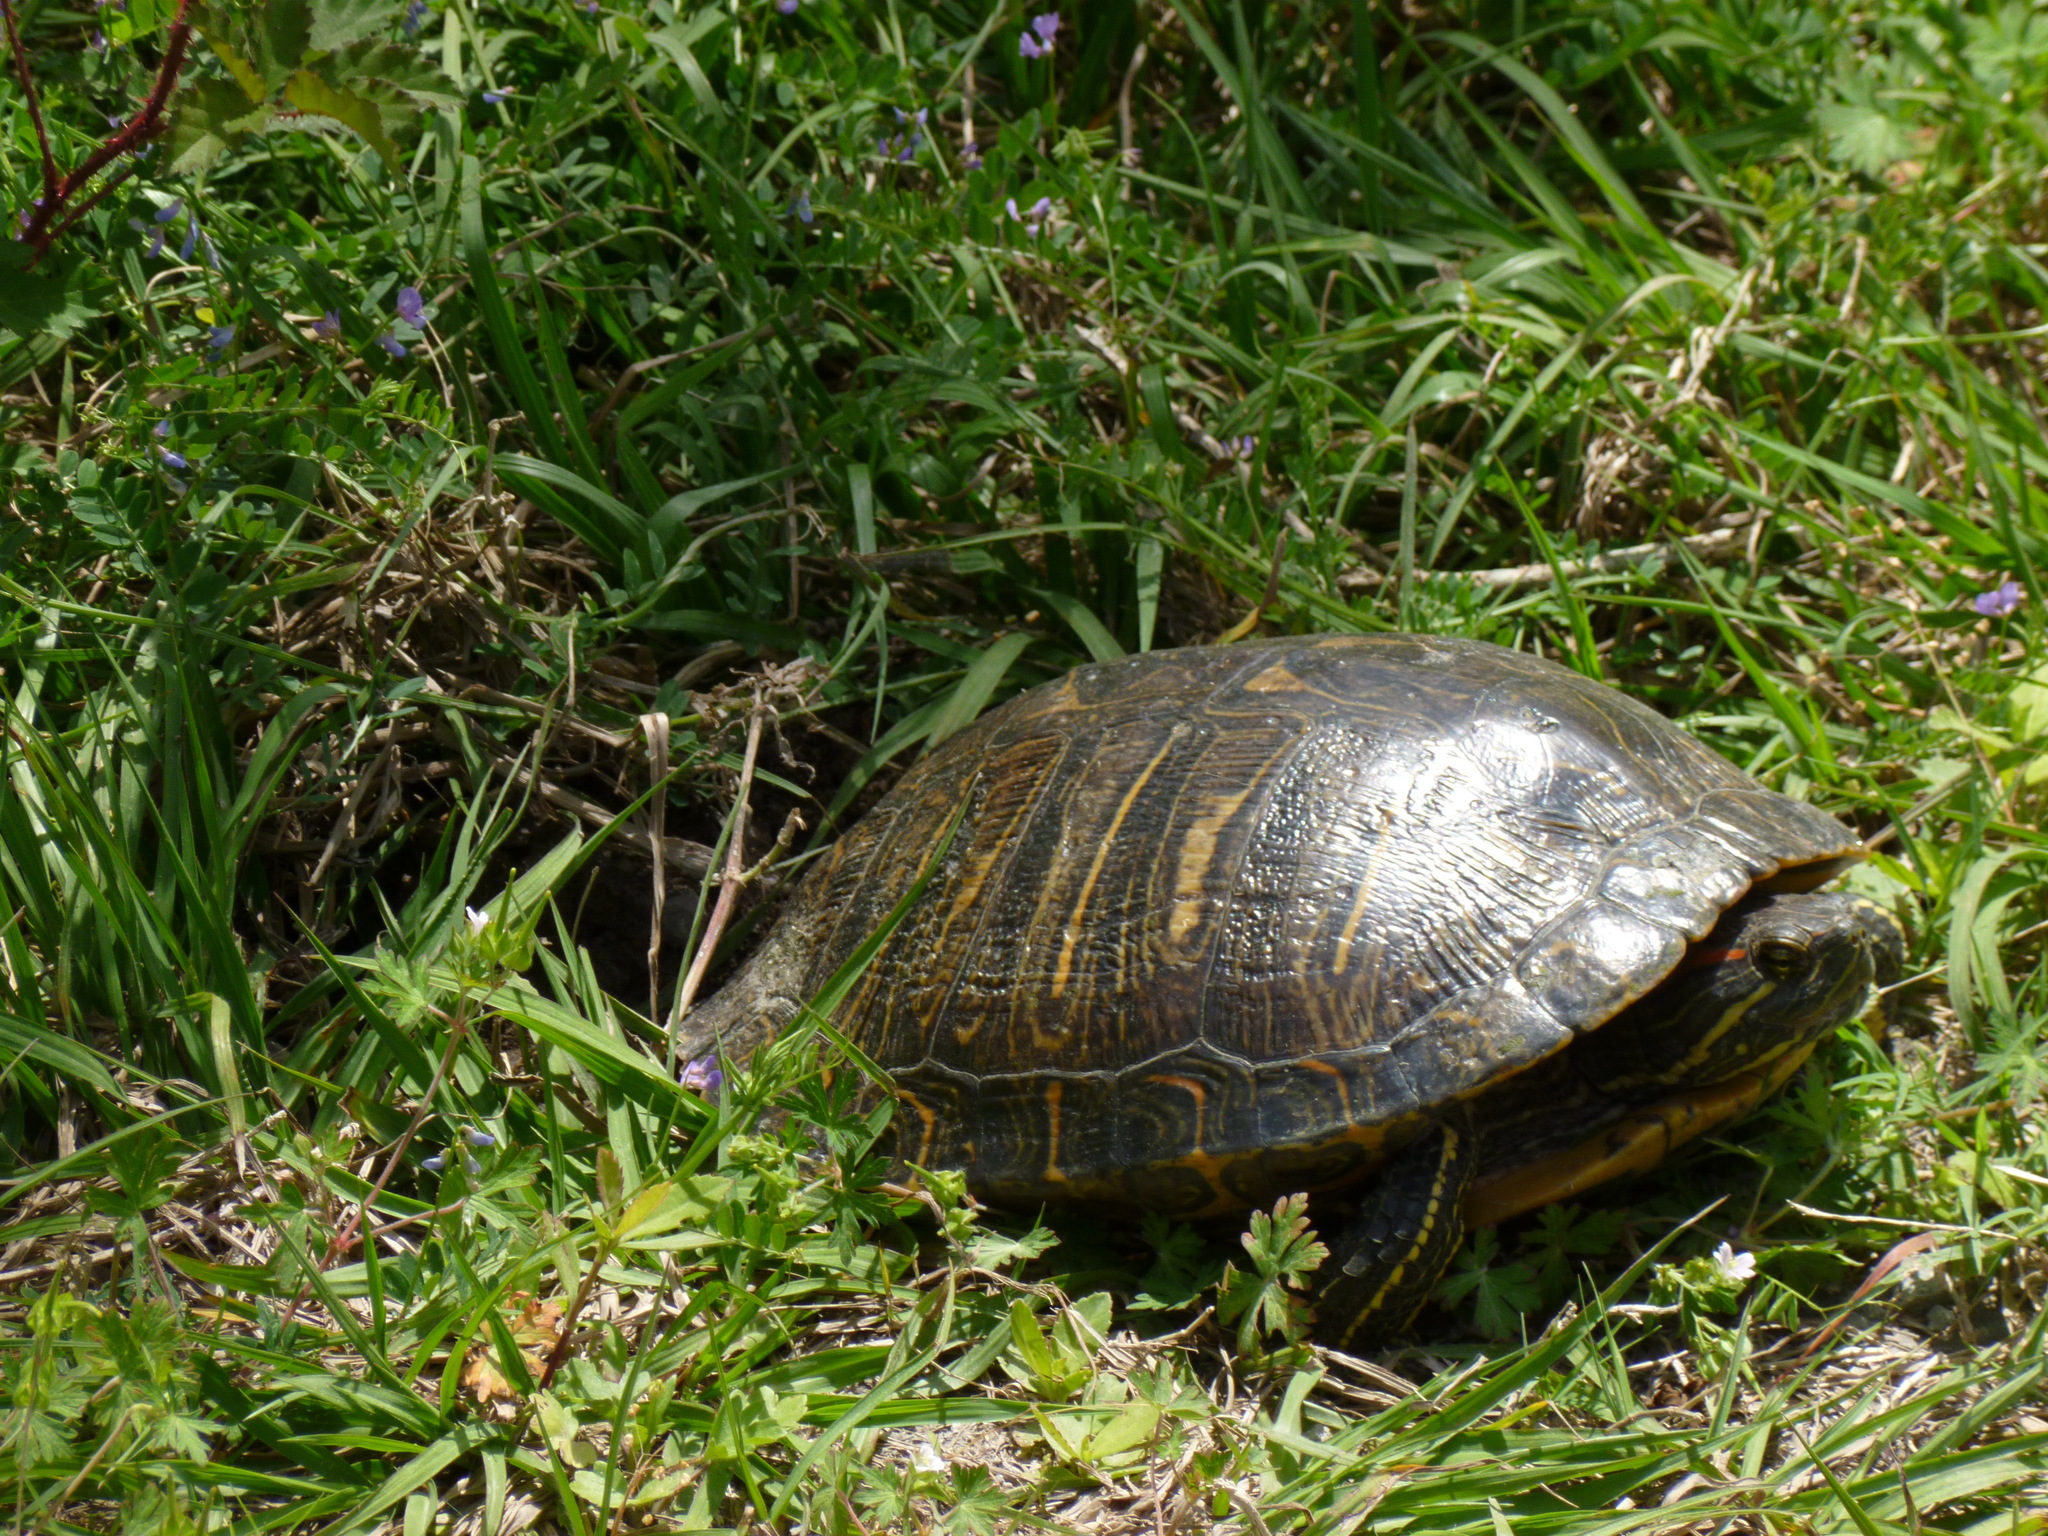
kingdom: Animalia
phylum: Chordata
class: Testudines
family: Emydidae
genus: Trachemys
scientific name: Trachemys scripta
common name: Slider
